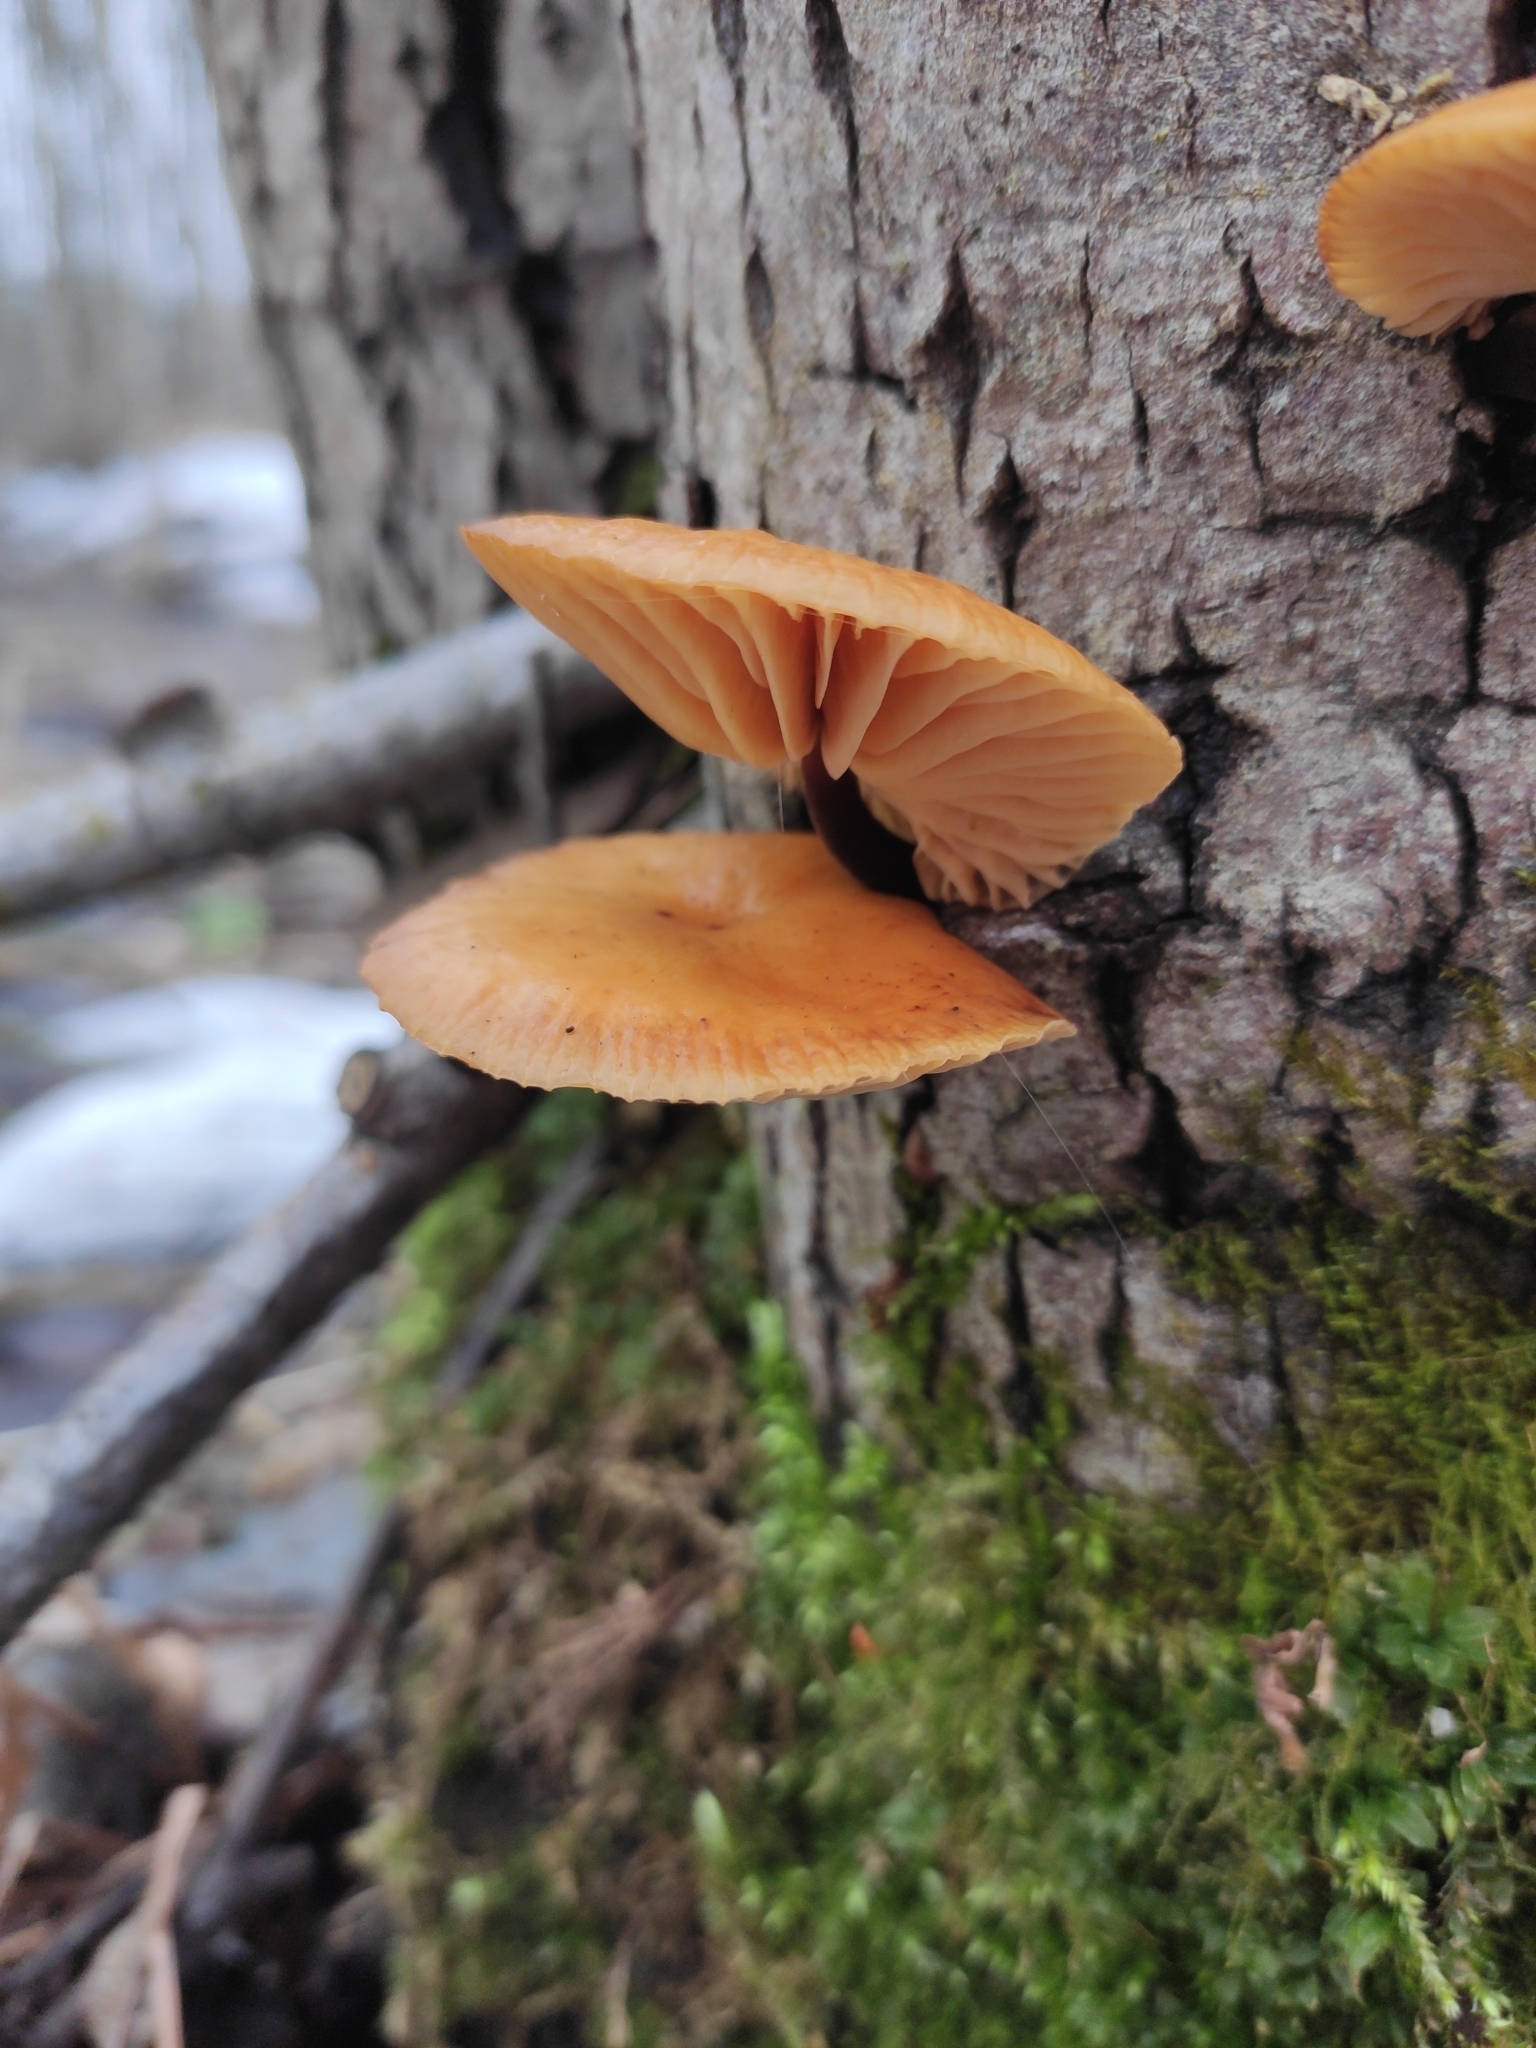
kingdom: Fungi
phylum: Basidiomycota
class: Agaricomycetes
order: Agaricales
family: Physalacriaceae
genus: Flammulina
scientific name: Flammulina
